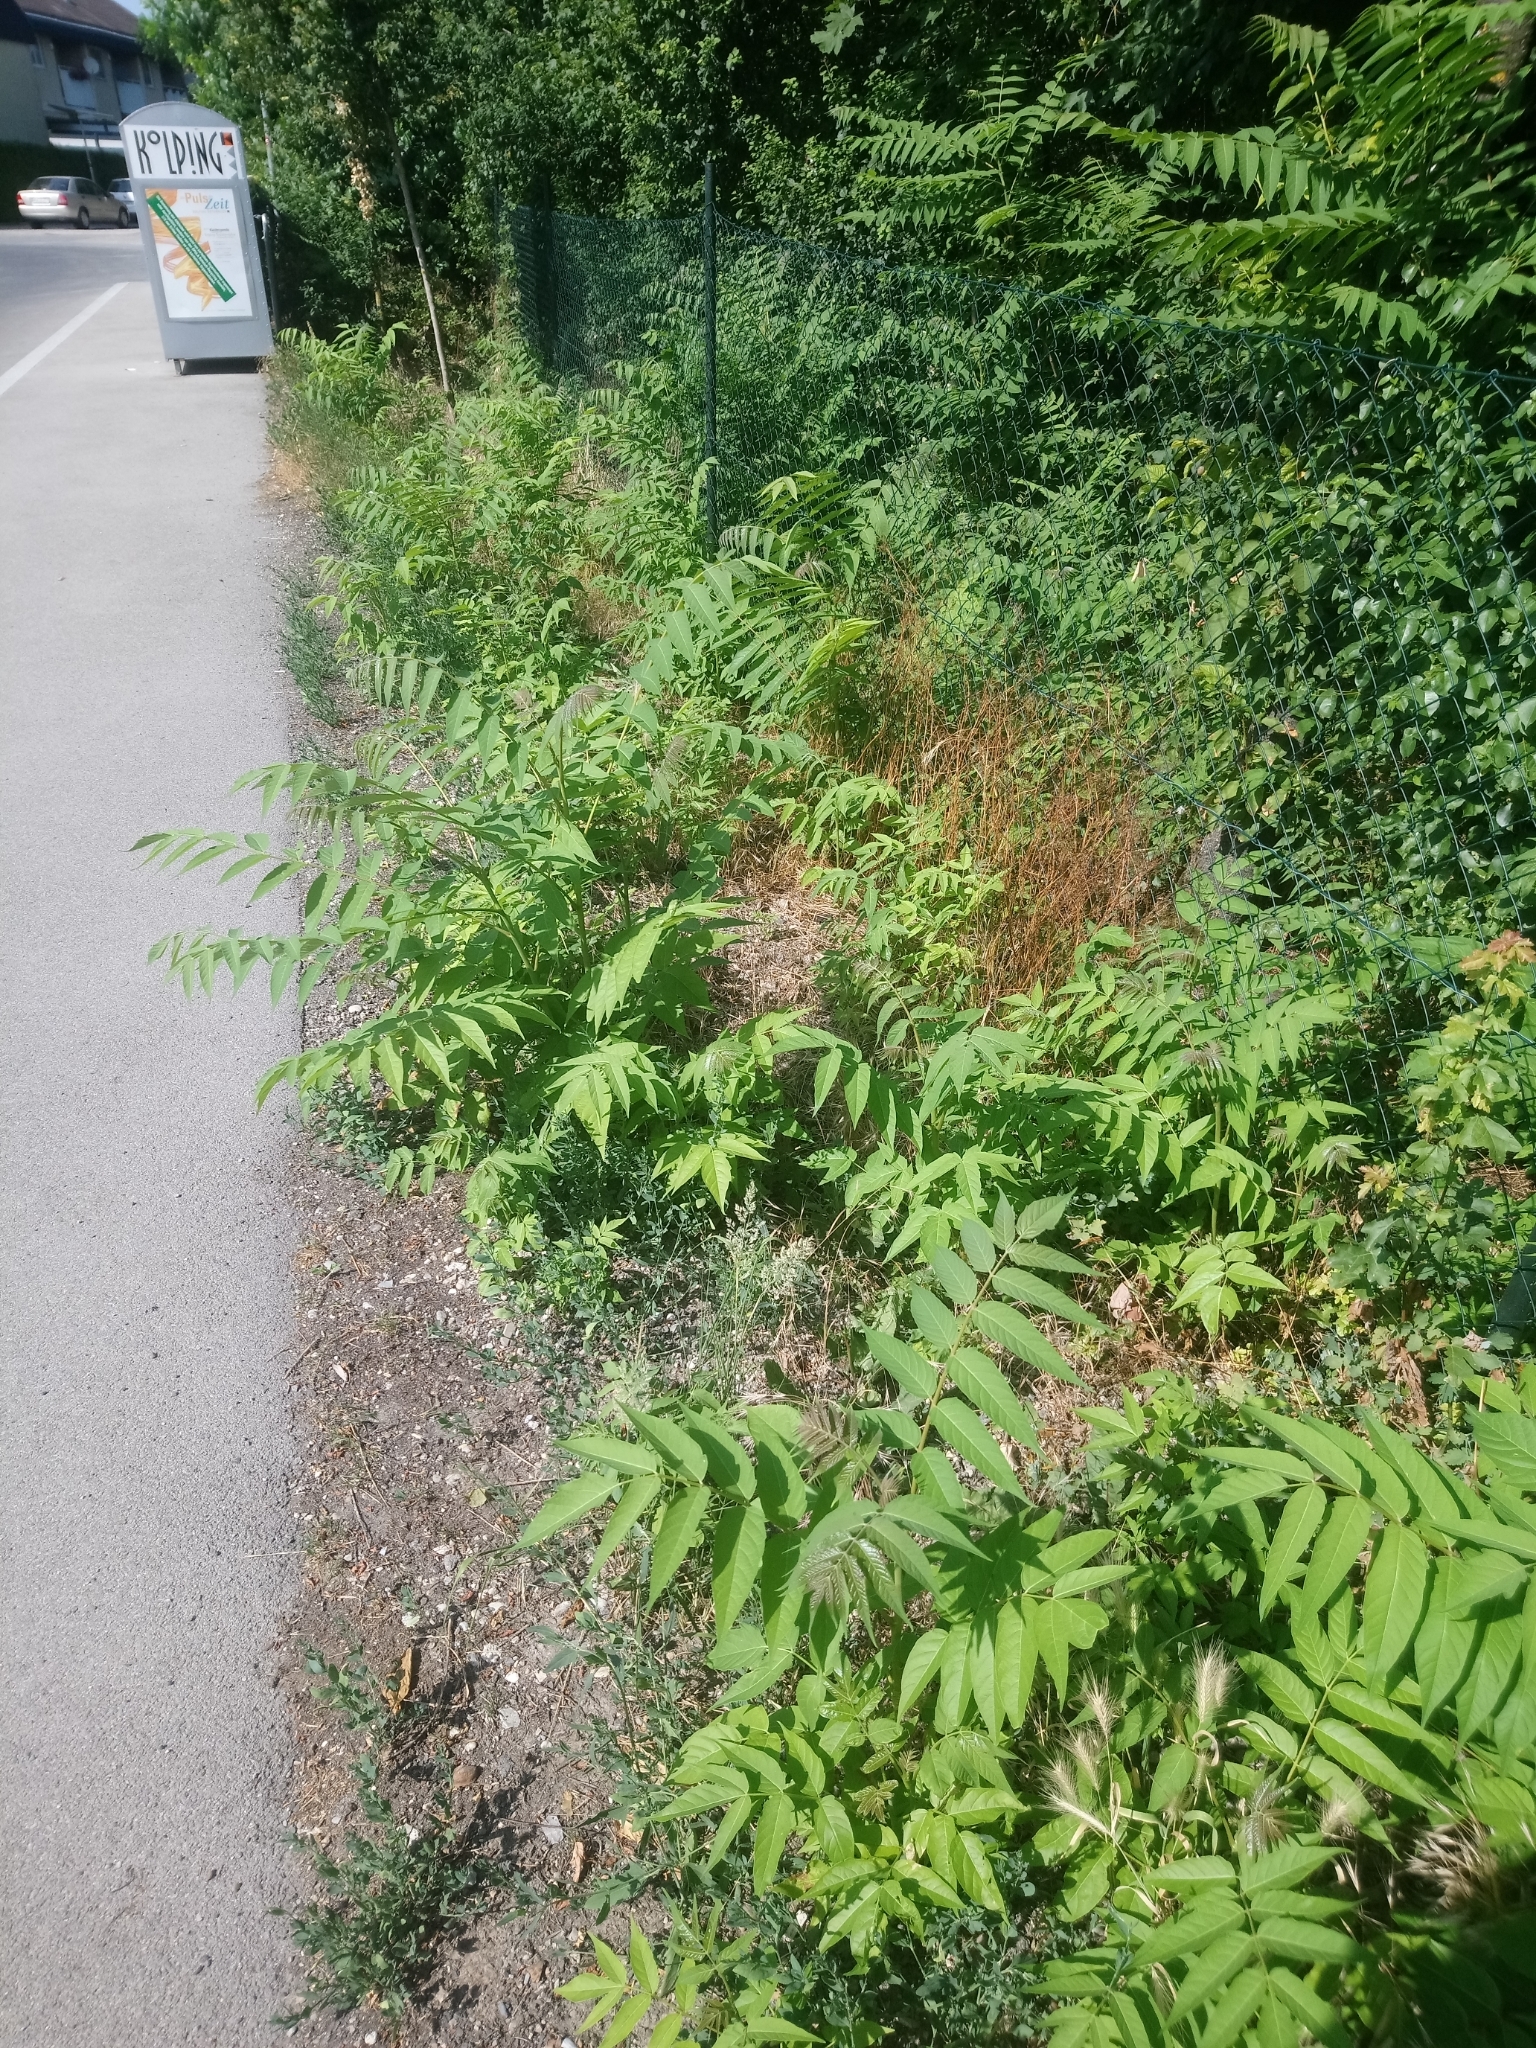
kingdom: Plantae
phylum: Tracheophyta
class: Magnoliopsida
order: Sapindales
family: Simaroubaceae
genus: Ailanthus
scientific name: Ailanthus altissima
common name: Tree-of-heaven
